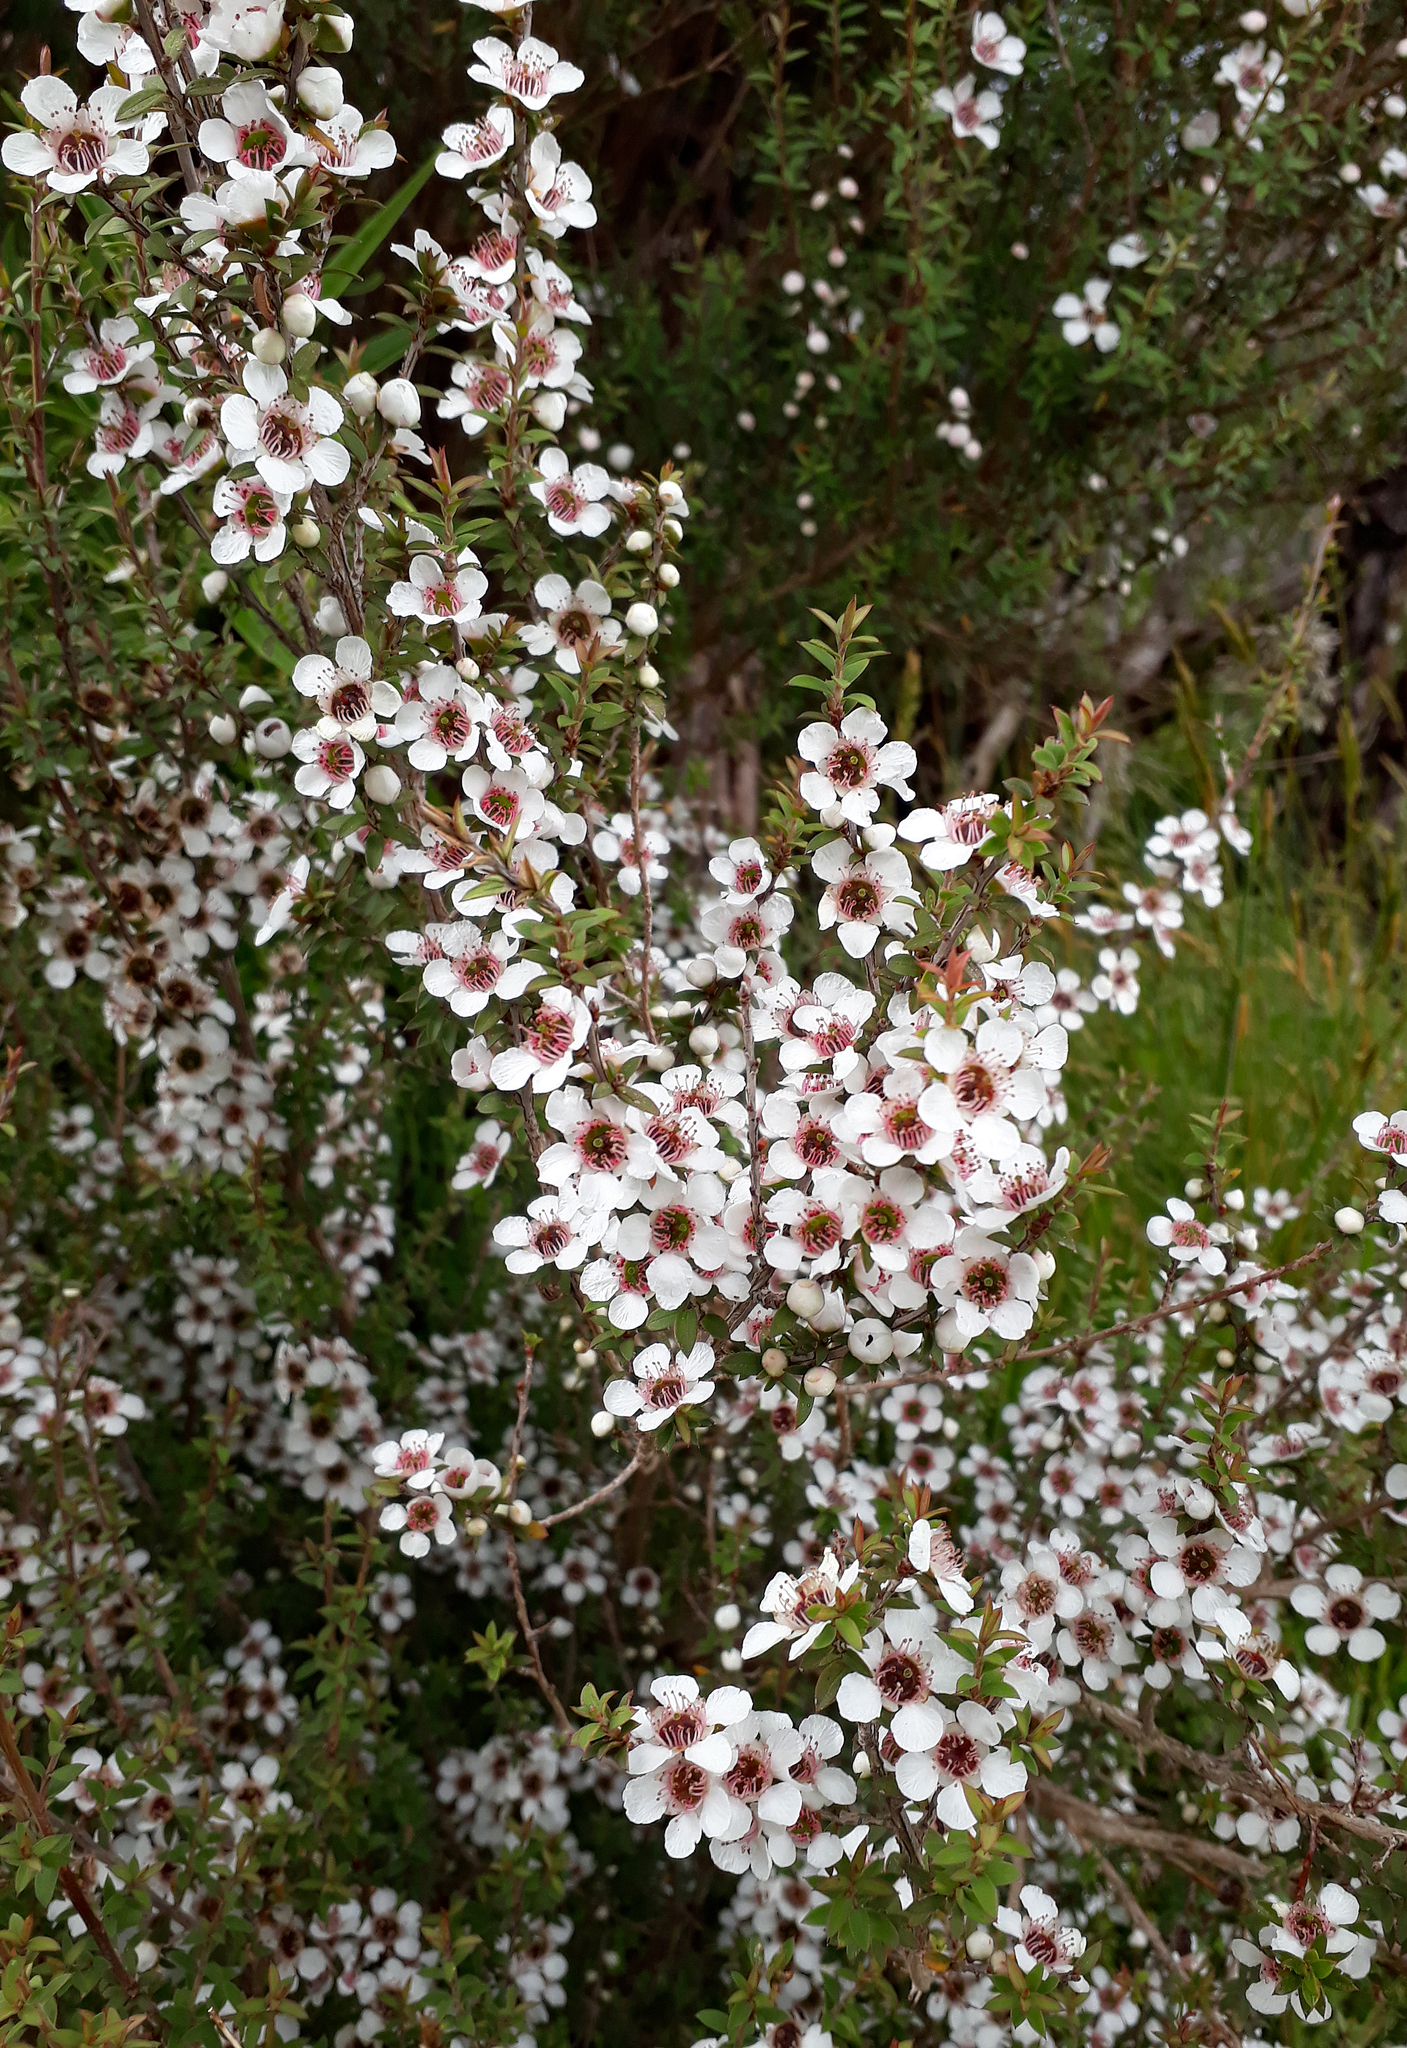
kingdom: Plantae
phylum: Tracheophyta
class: Magnoliopsida
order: Myrtales
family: Myrtaceae
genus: Leptospermum
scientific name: Leptospermum scoparium
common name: Broom tea-tree
